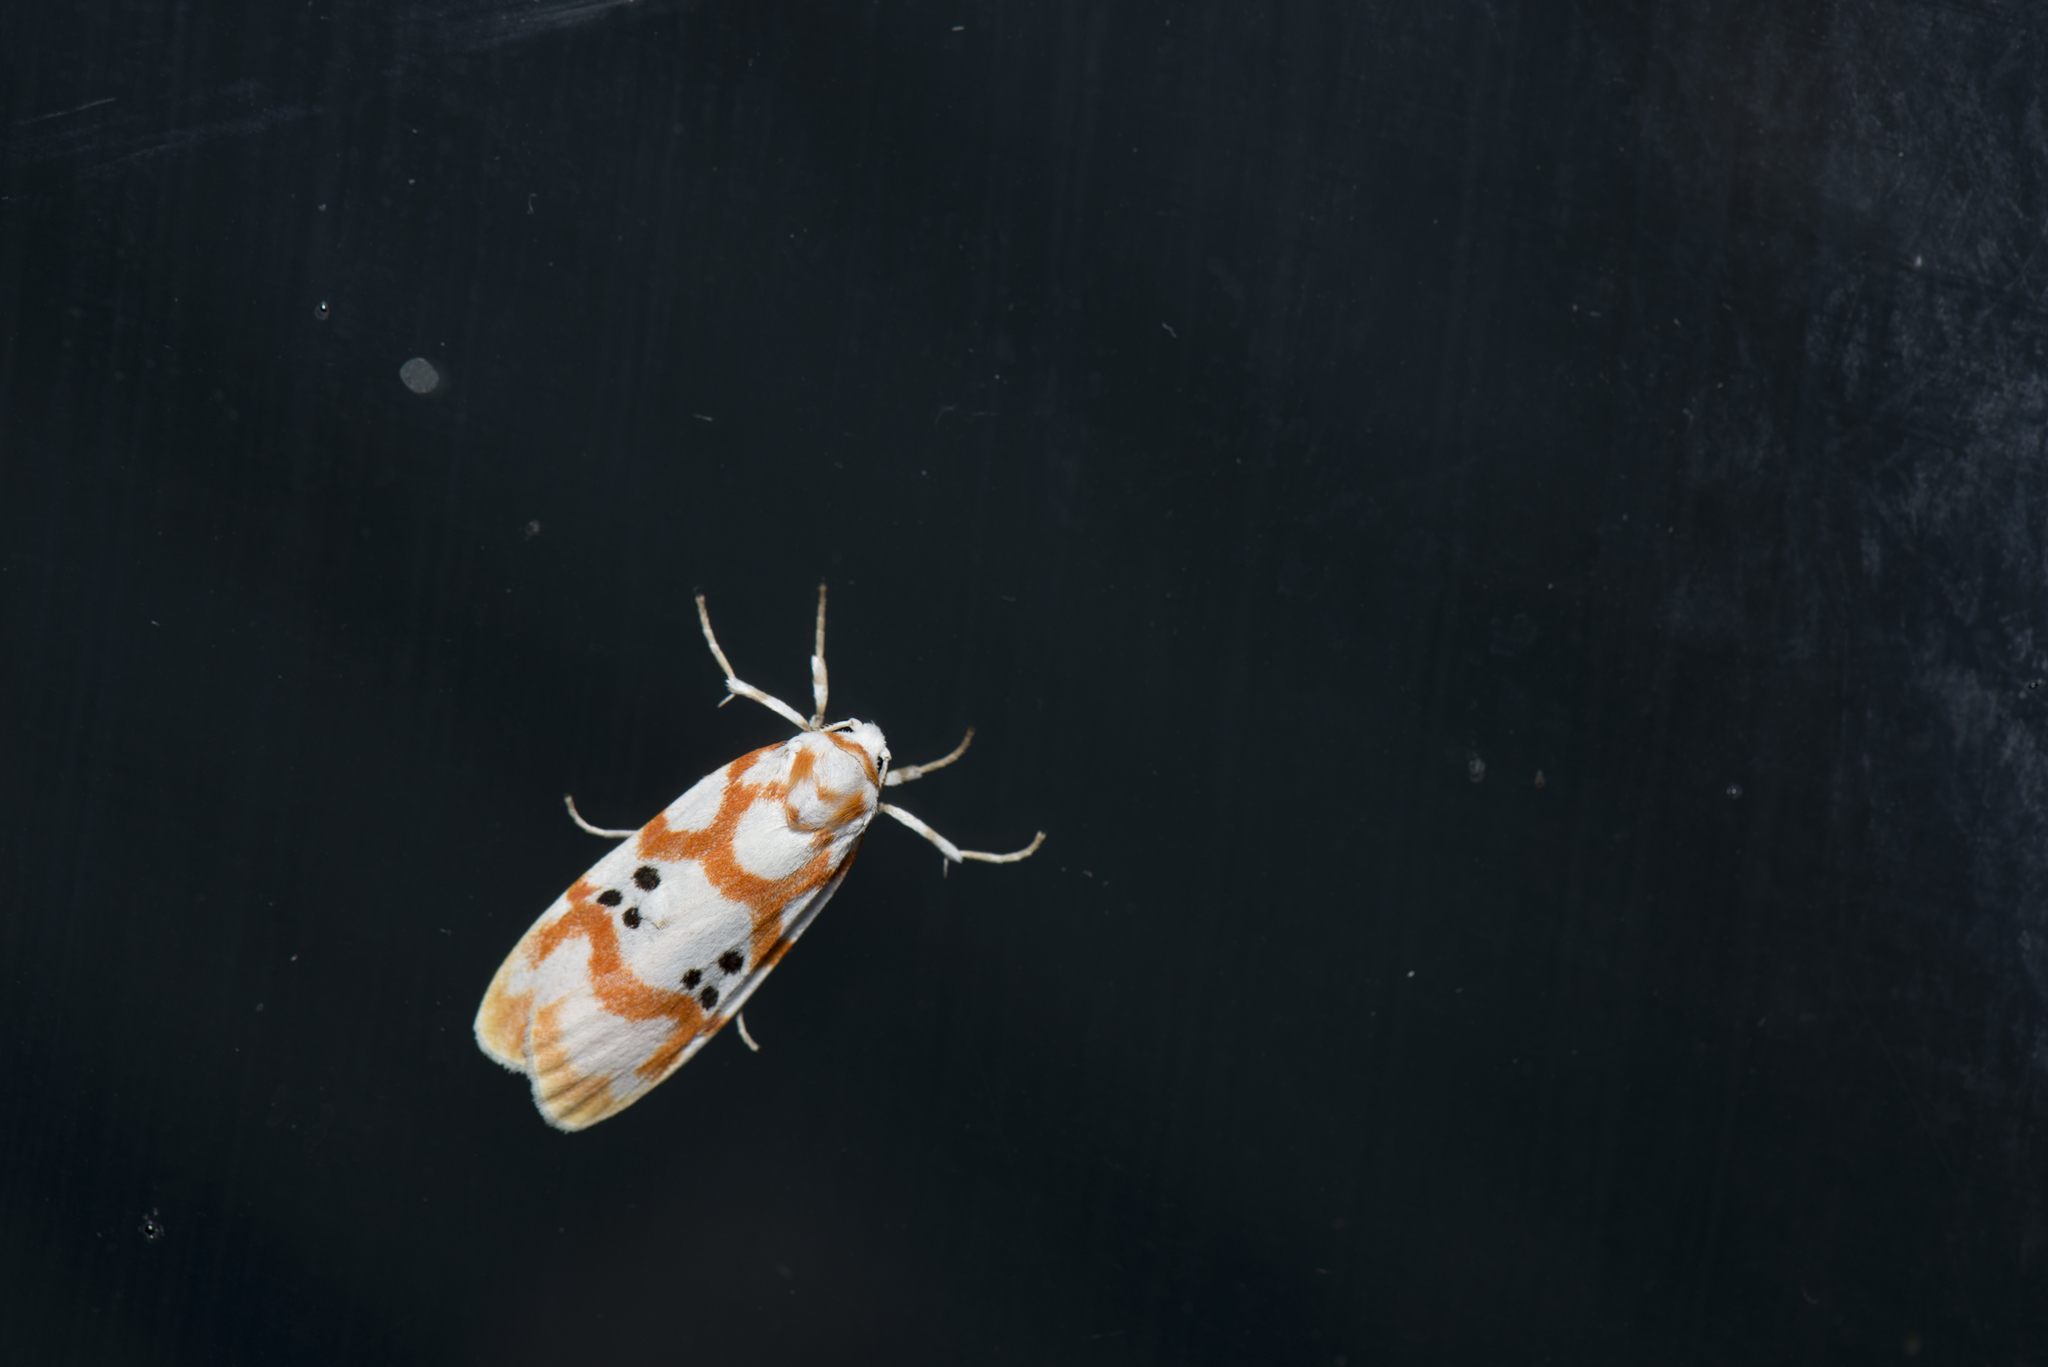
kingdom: Animalia
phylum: Arthropoda
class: Insecta
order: Lepidoptera
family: Erebidae
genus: Cyana
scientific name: Cyana formosana
